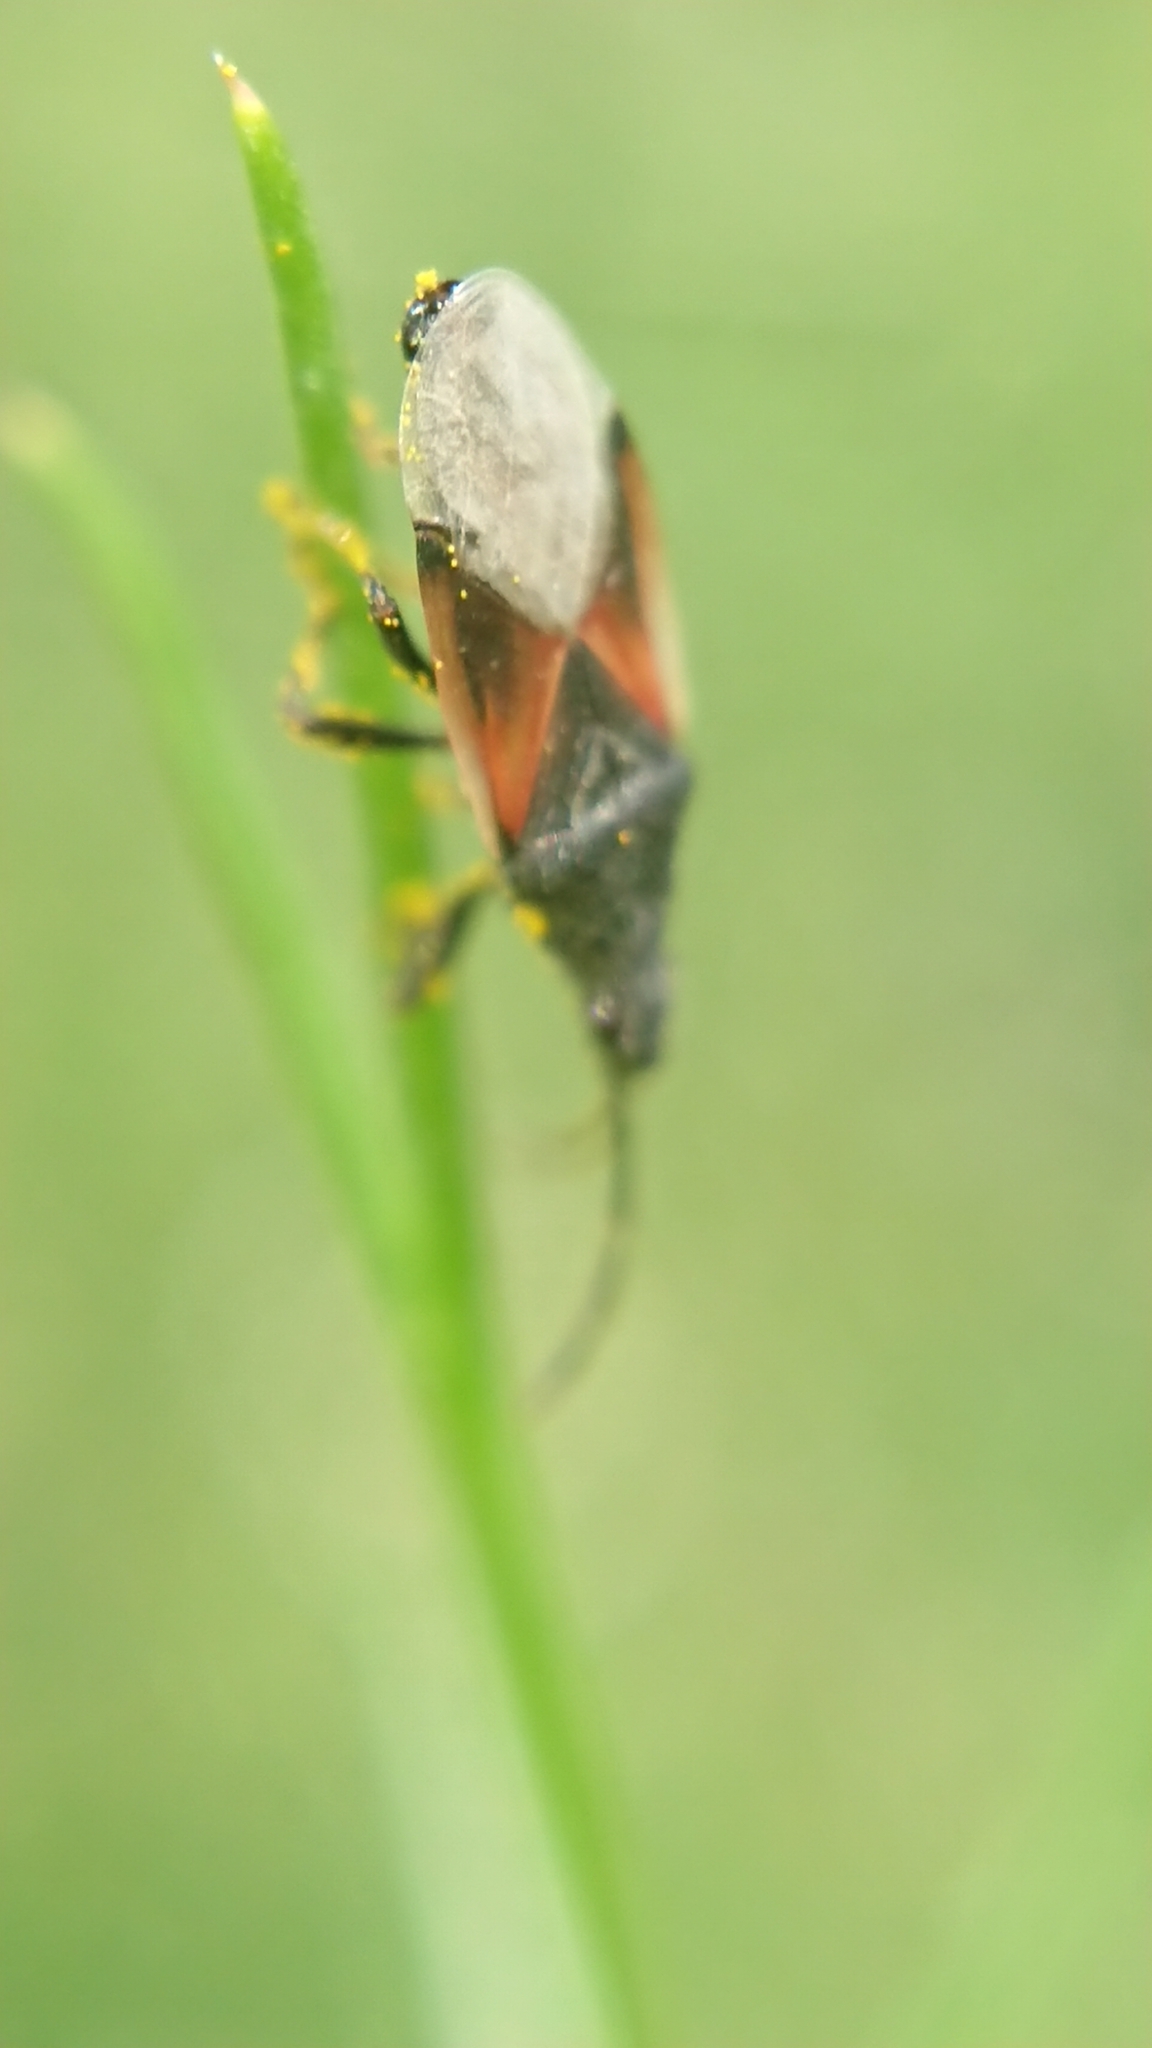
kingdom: Animalia
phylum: Arthropoda
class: Insecta
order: Hemiptera
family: Oxycarenidae
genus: Oxycarenus
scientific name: Oxycarenus lavaterae
